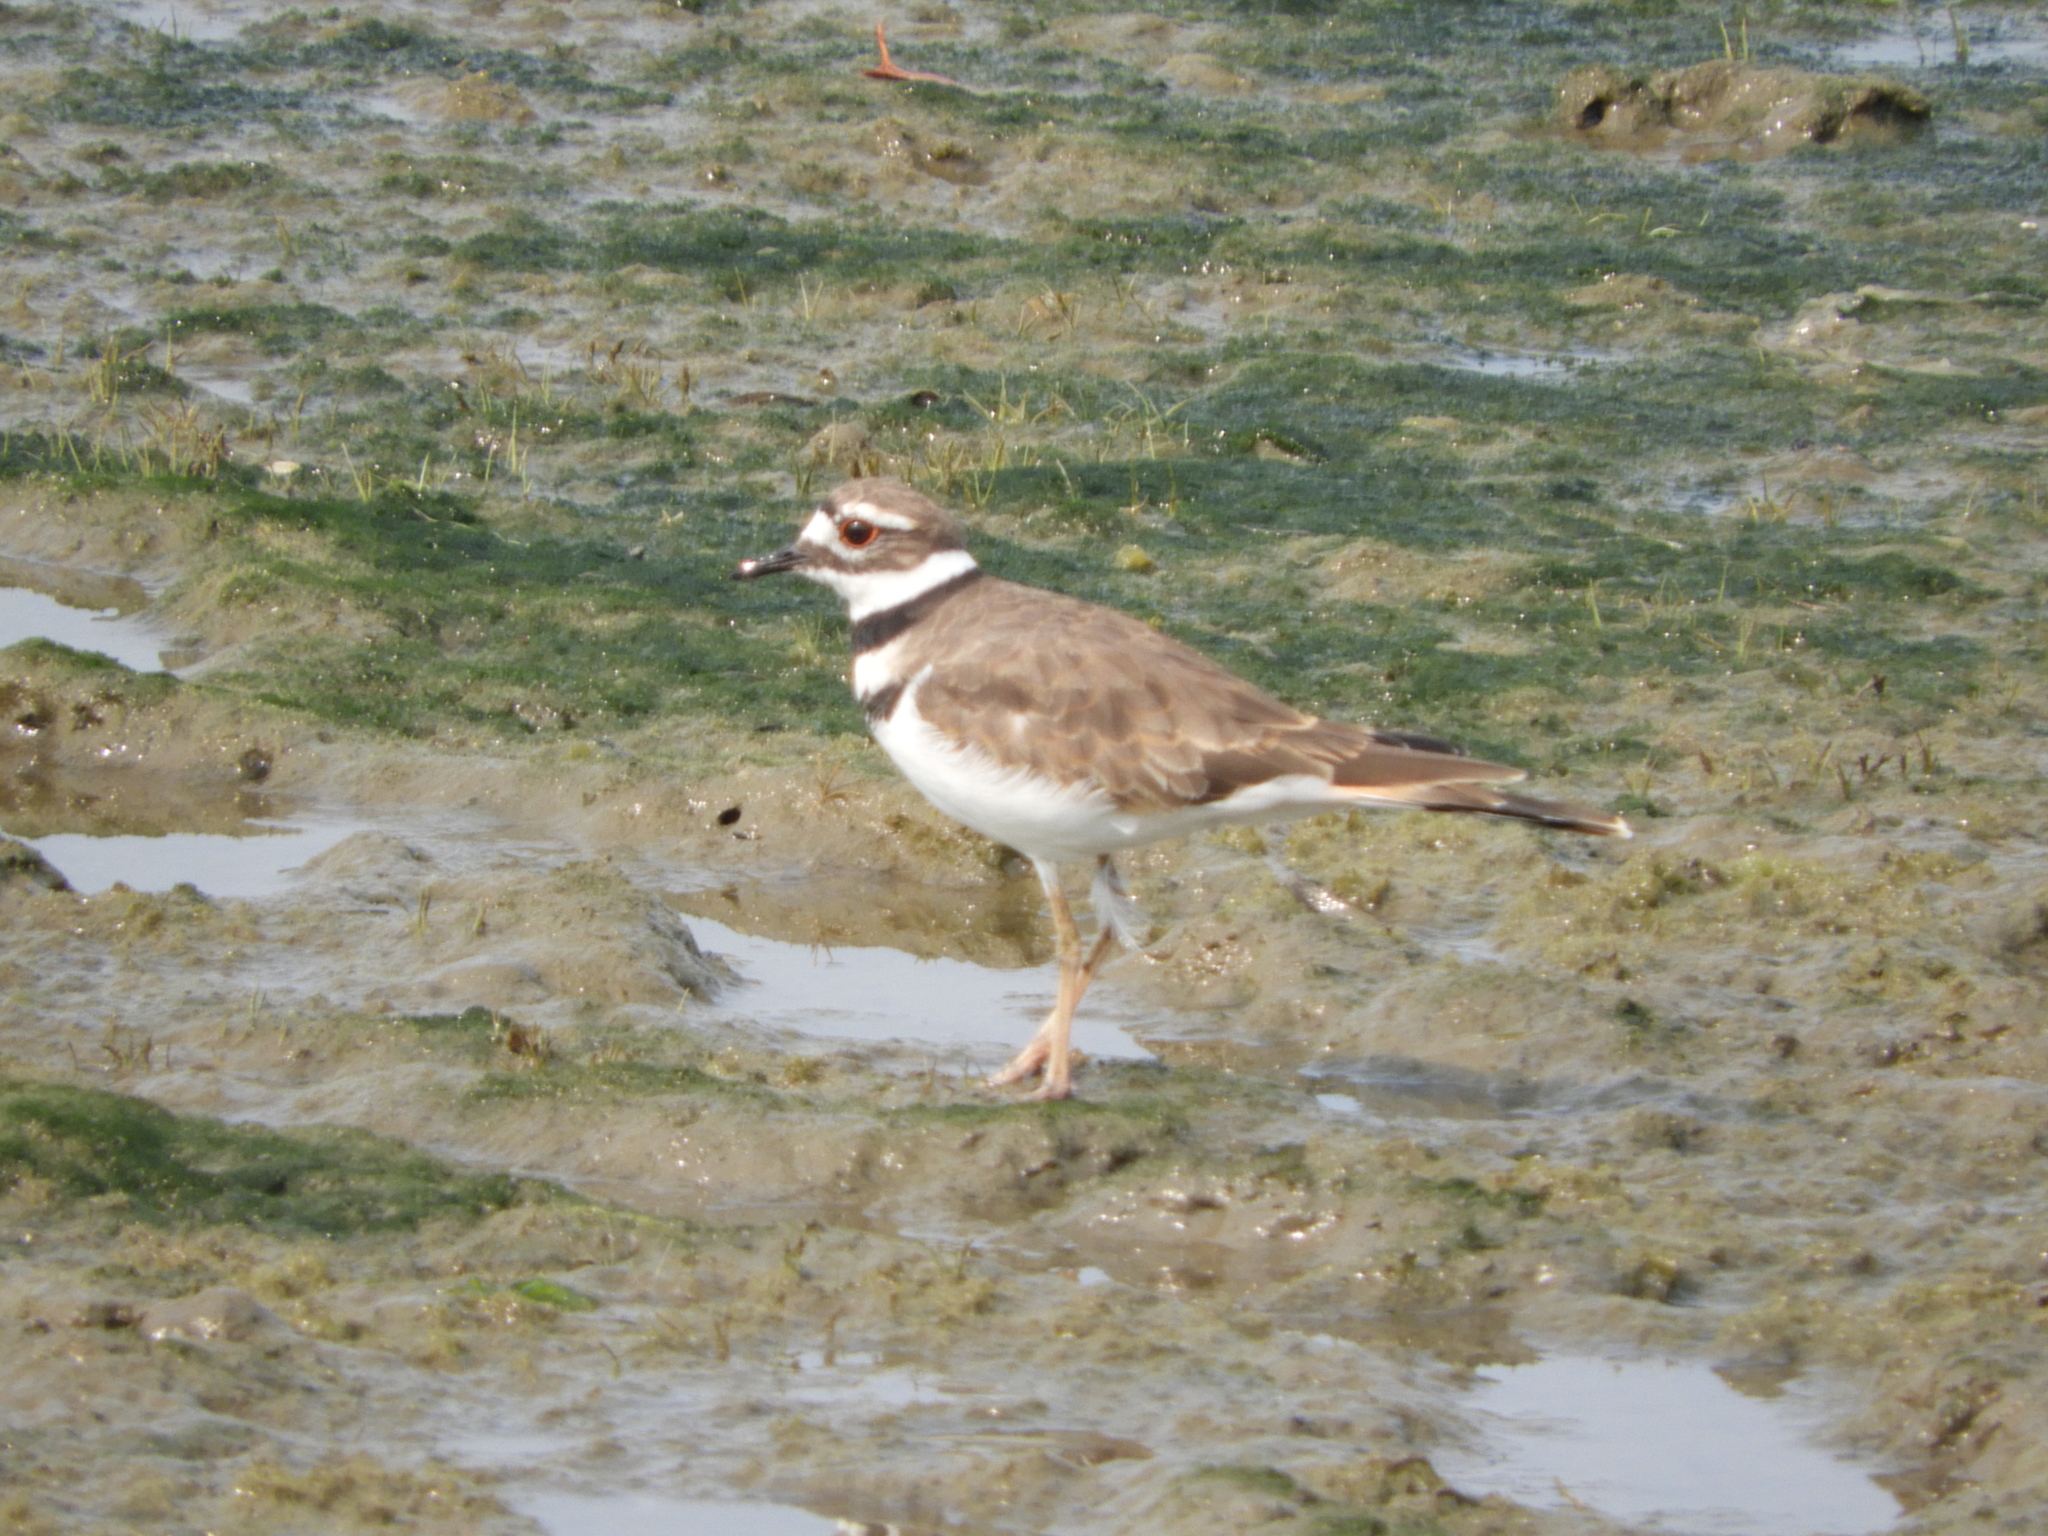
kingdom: Animalia
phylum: Chordata
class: Aves
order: Charadriiformes
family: Charadriidae
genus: Charadrius
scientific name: Charadrius vociferus
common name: Killdeer
